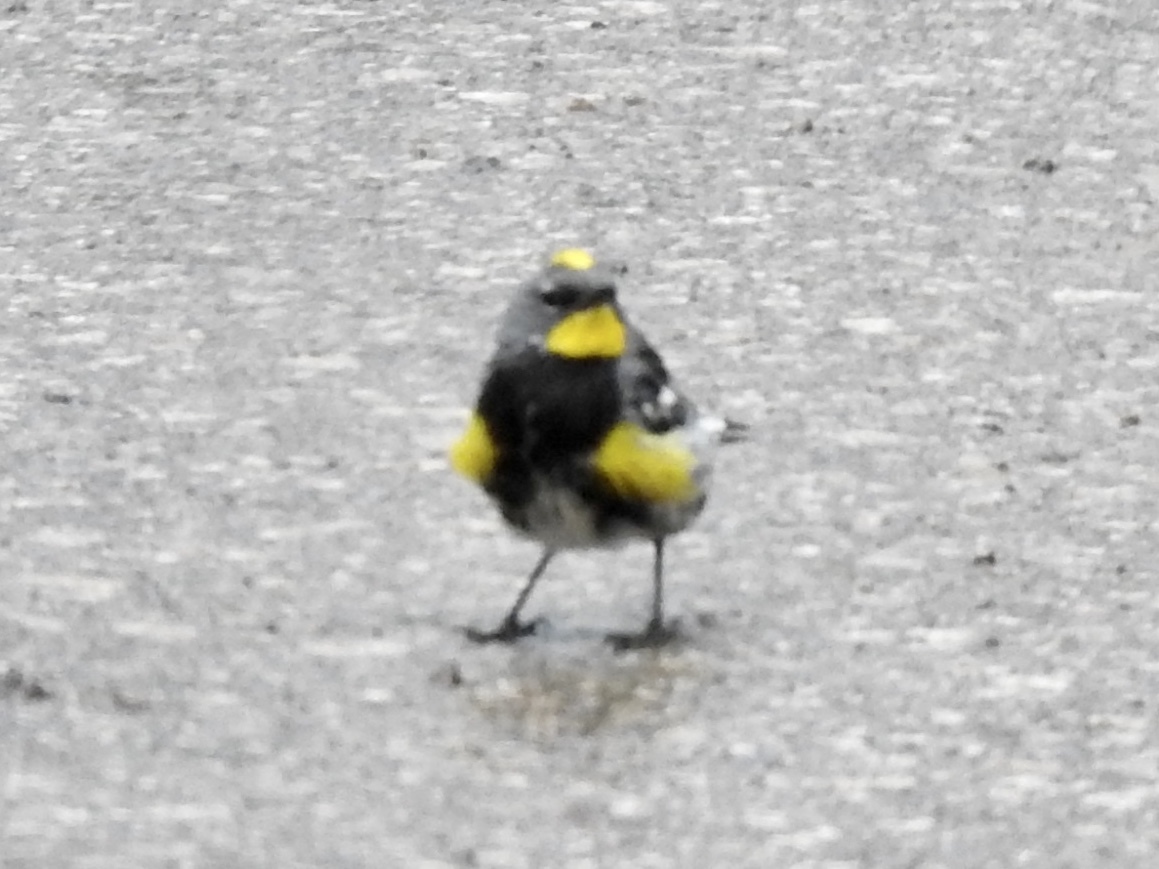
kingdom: Animalia
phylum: Chordata
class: Aves
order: Passeriformes
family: Parulidae
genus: Setophaga
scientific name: Setophaga auduboni
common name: Audubon's warbler
